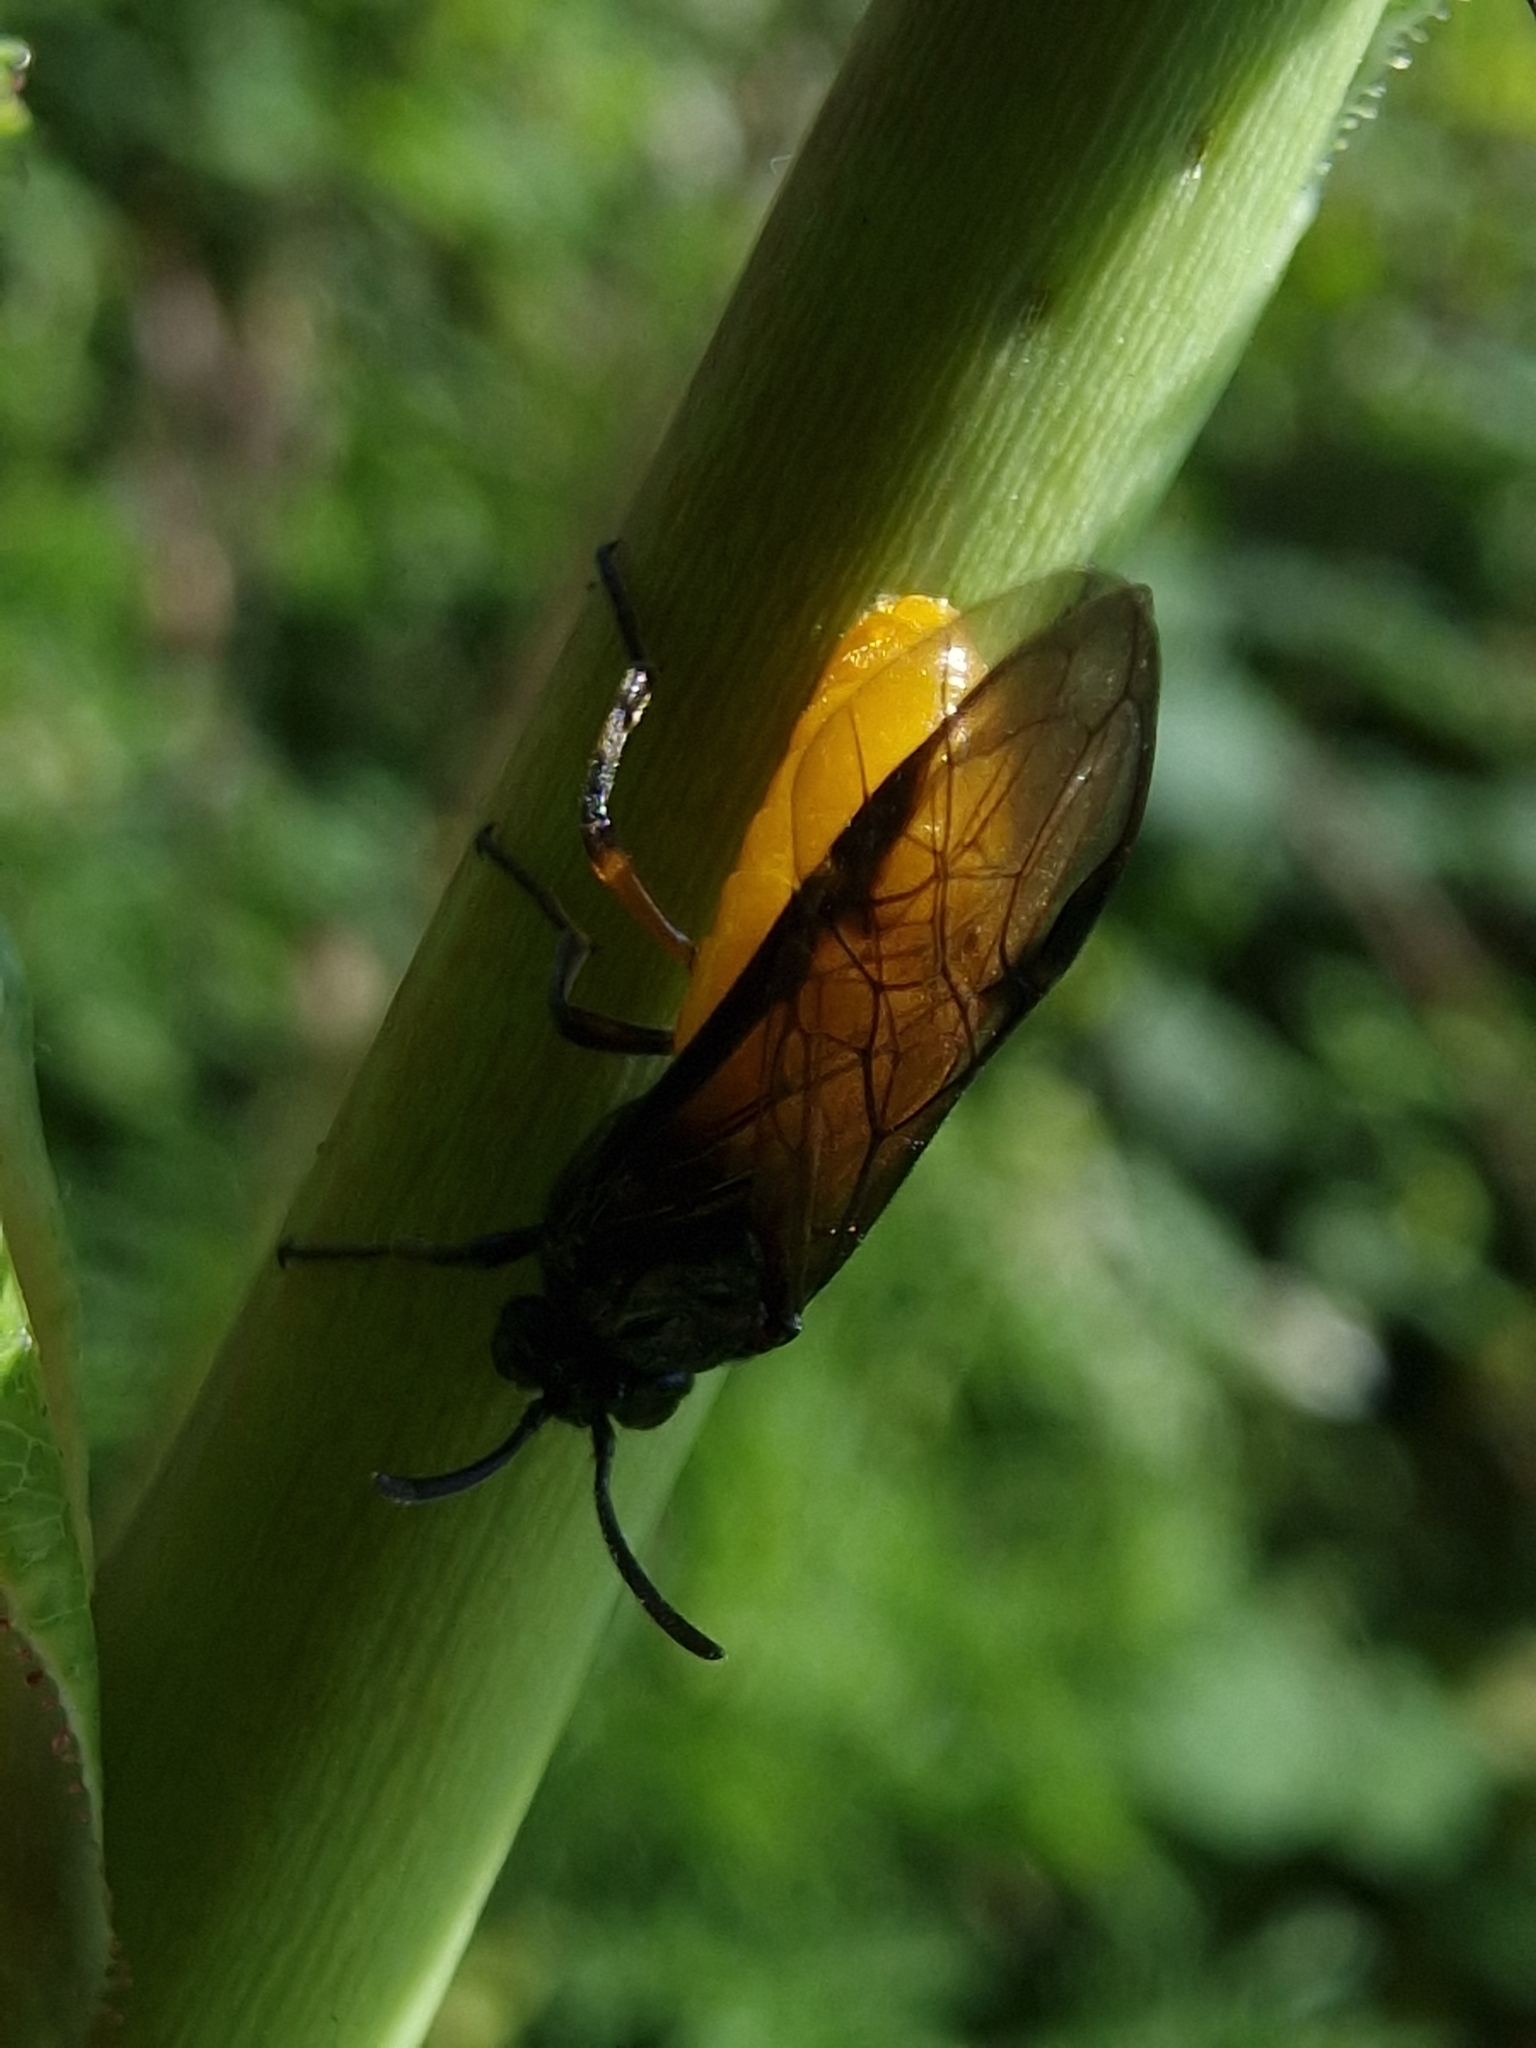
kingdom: Animalia
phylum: Arthropoda
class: Insecta
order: Hymenoptera
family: Argidae
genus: Arge
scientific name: Arge pagana
